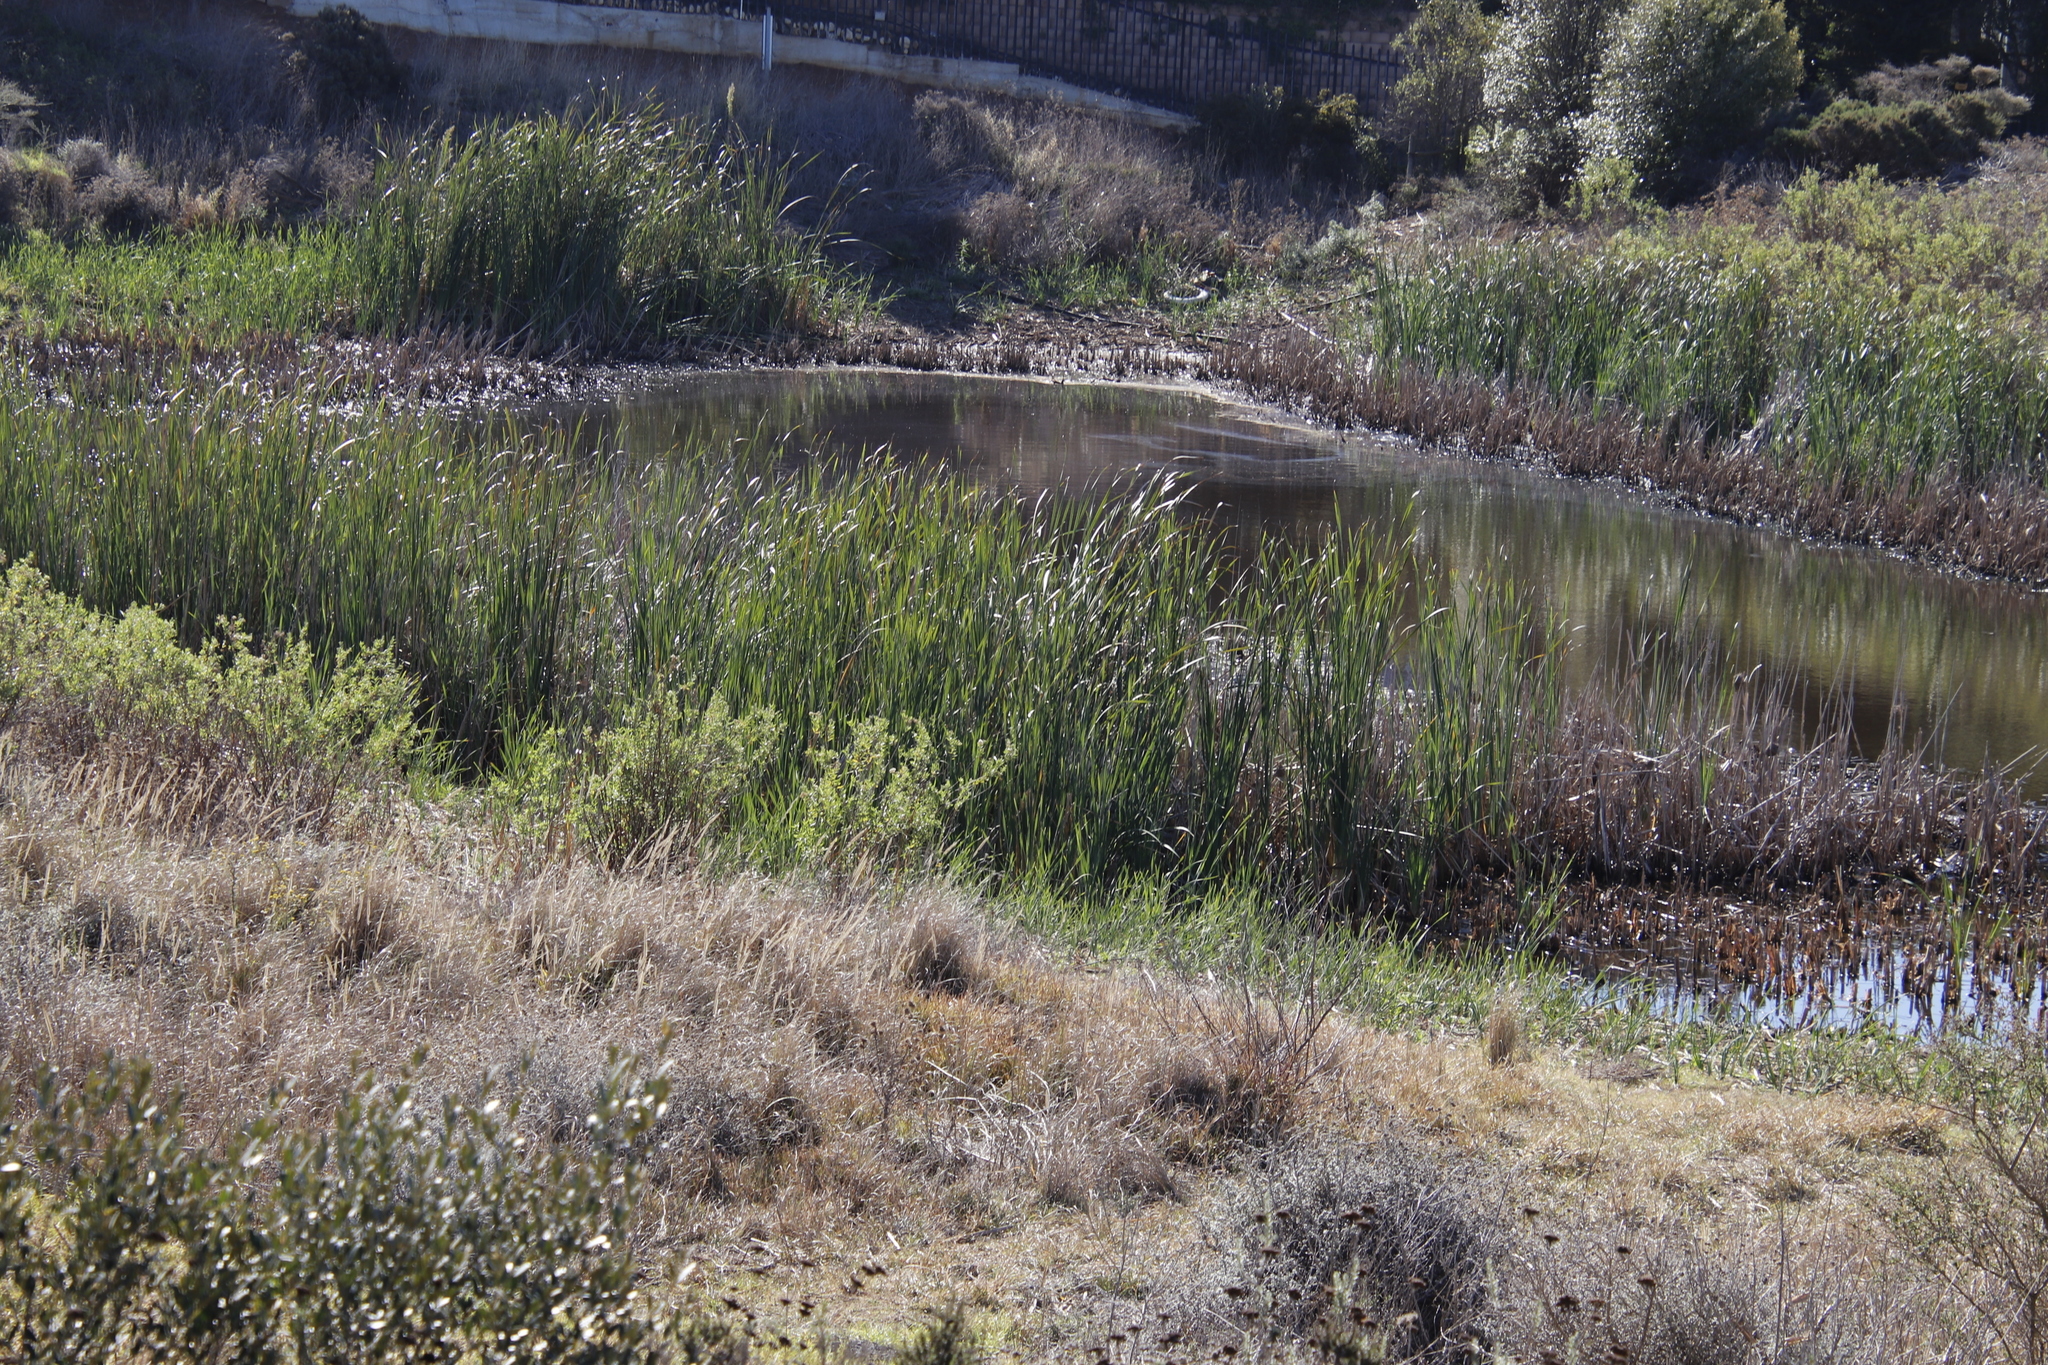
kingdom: Plantae
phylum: Tracheophyta
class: Liliopsida
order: Poales
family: Typhaceae
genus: Typha
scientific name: Typha capensis
